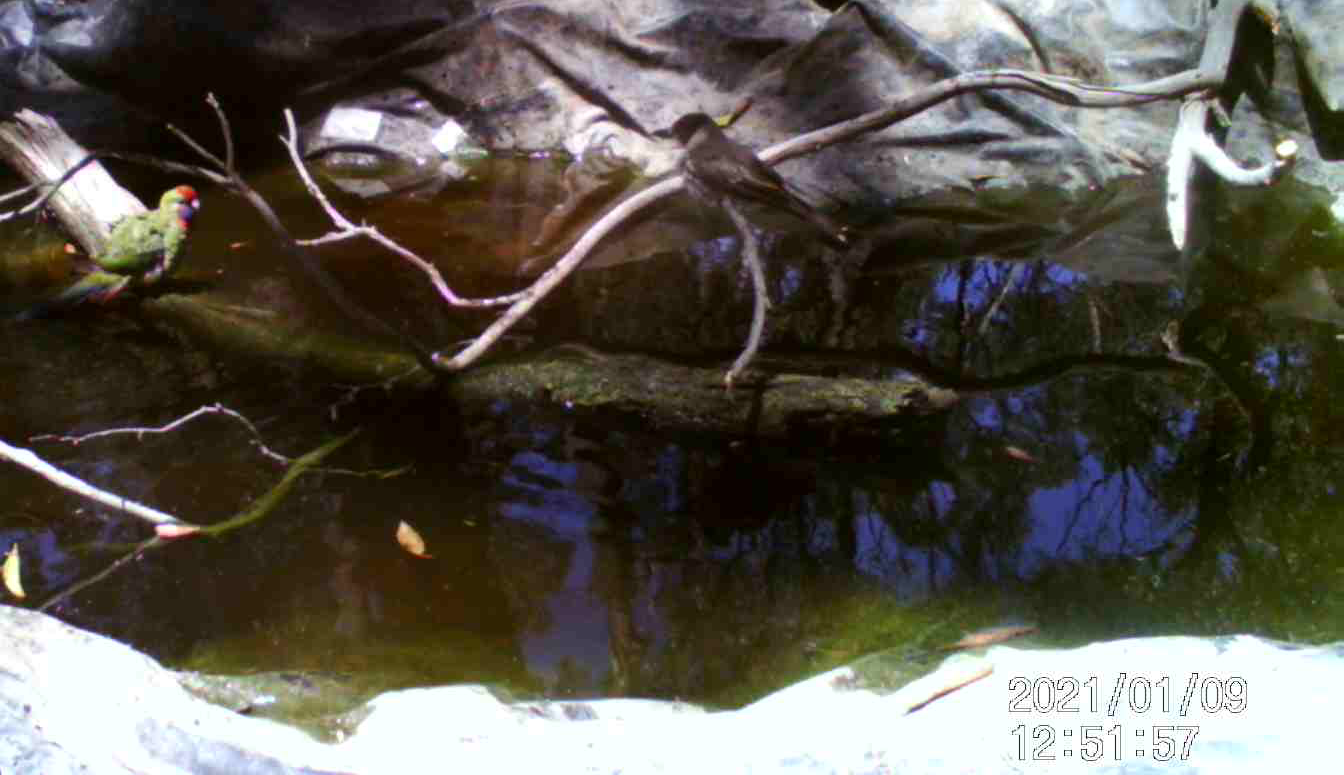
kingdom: Animalia
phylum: Chordata
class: Aves
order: Psittaciformes
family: Psittacidae
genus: Platycercus
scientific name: Platycercus elegans
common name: Crimson rosella
